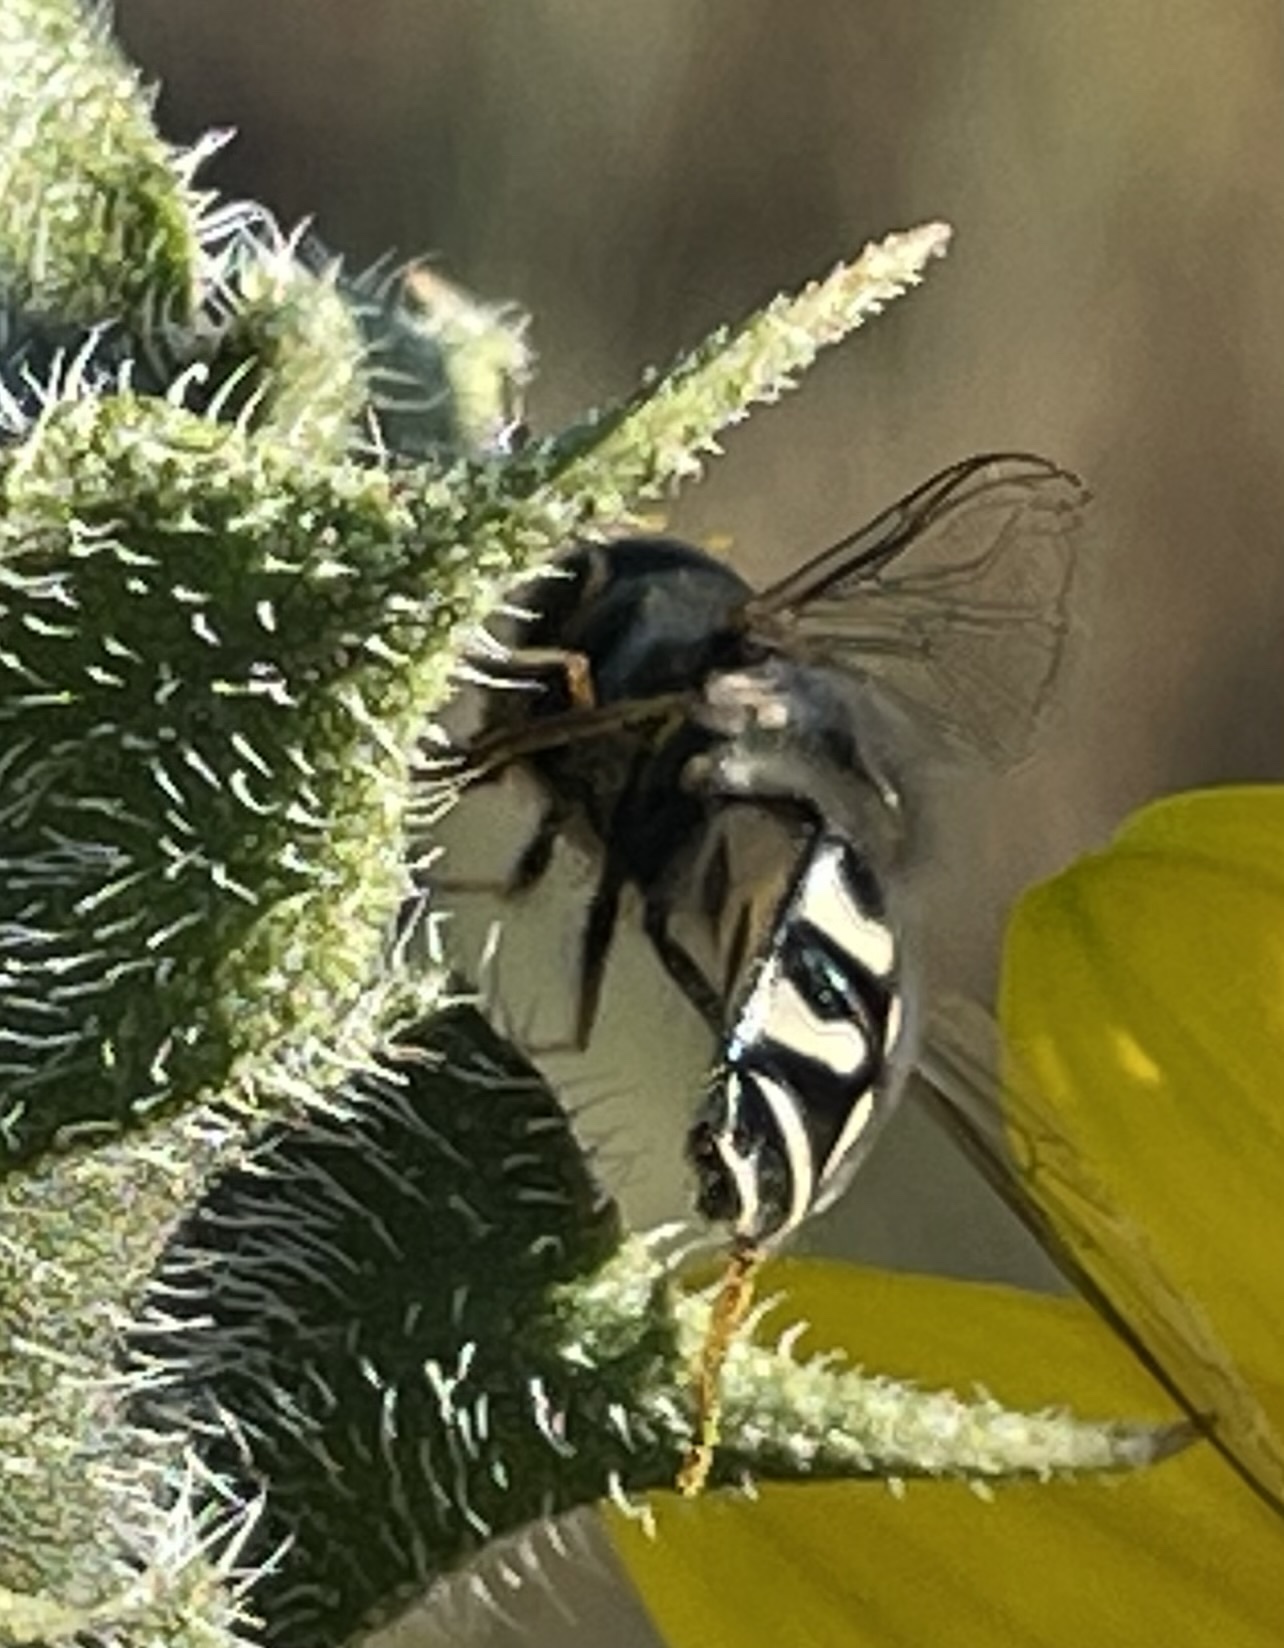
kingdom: Animalia
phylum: Arthropoda
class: Insecta
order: Diptera
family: Syrphidae
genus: Scaeva
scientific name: Scaeva affinis
